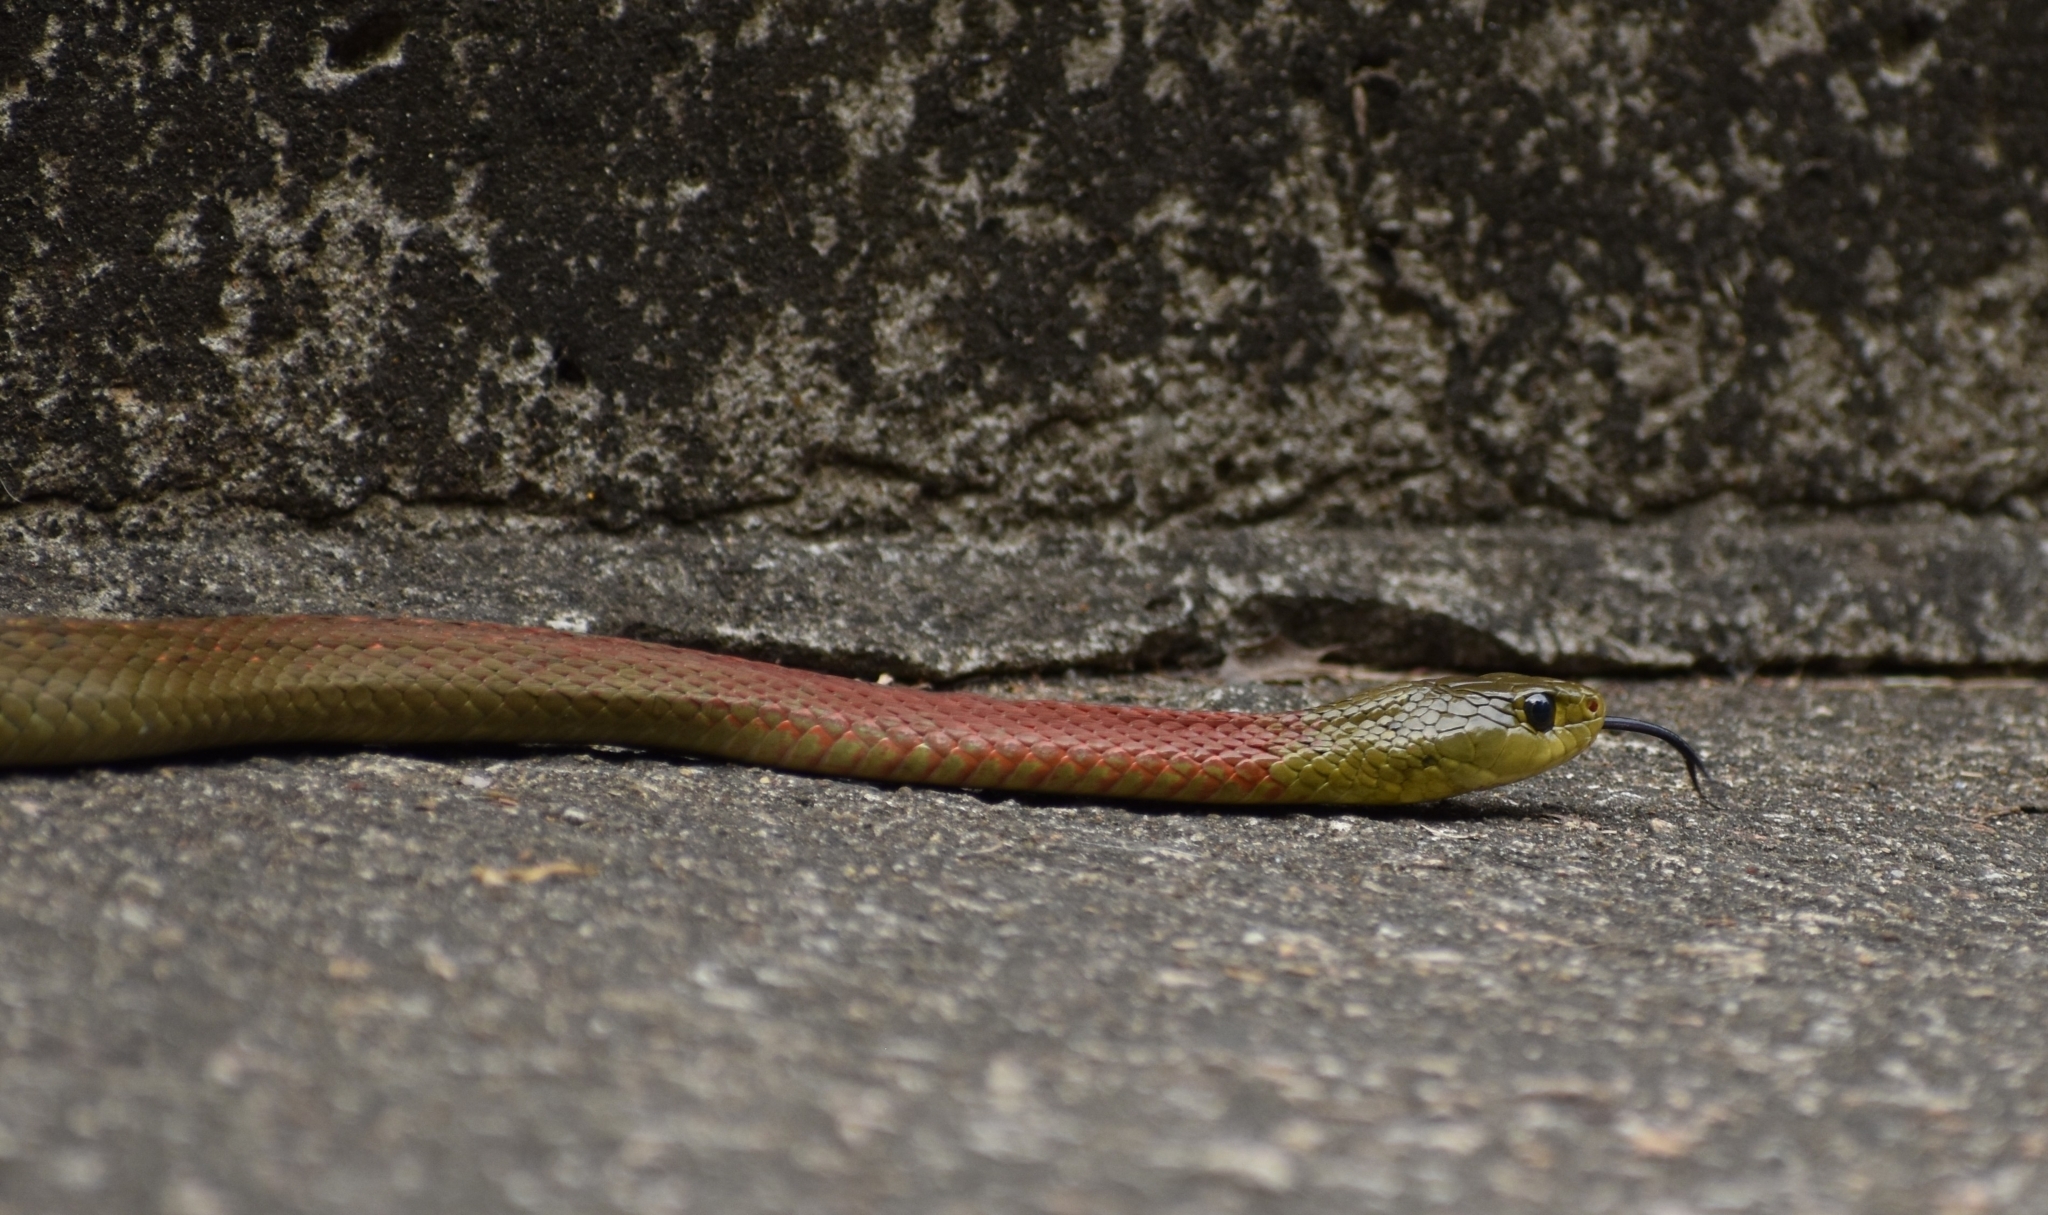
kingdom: Animalia
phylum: Chordata
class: Squamata
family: Colubridae
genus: Rhabdophis
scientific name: Rhabdophis helleri
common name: Heller’s red-necked keelback
